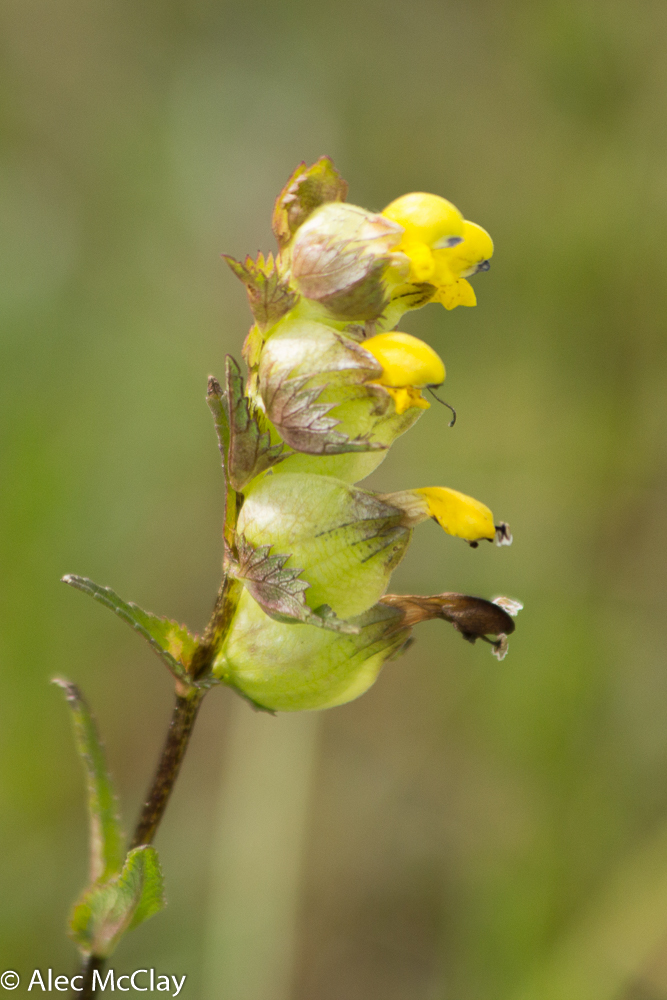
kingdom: Plantae
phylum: Tracheophyta
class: Magnoliopsida
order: Lamiales
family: Orobanchaceae
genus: Rhinanthus
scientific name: Rhinanthus minor
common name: Yellow-rattle
